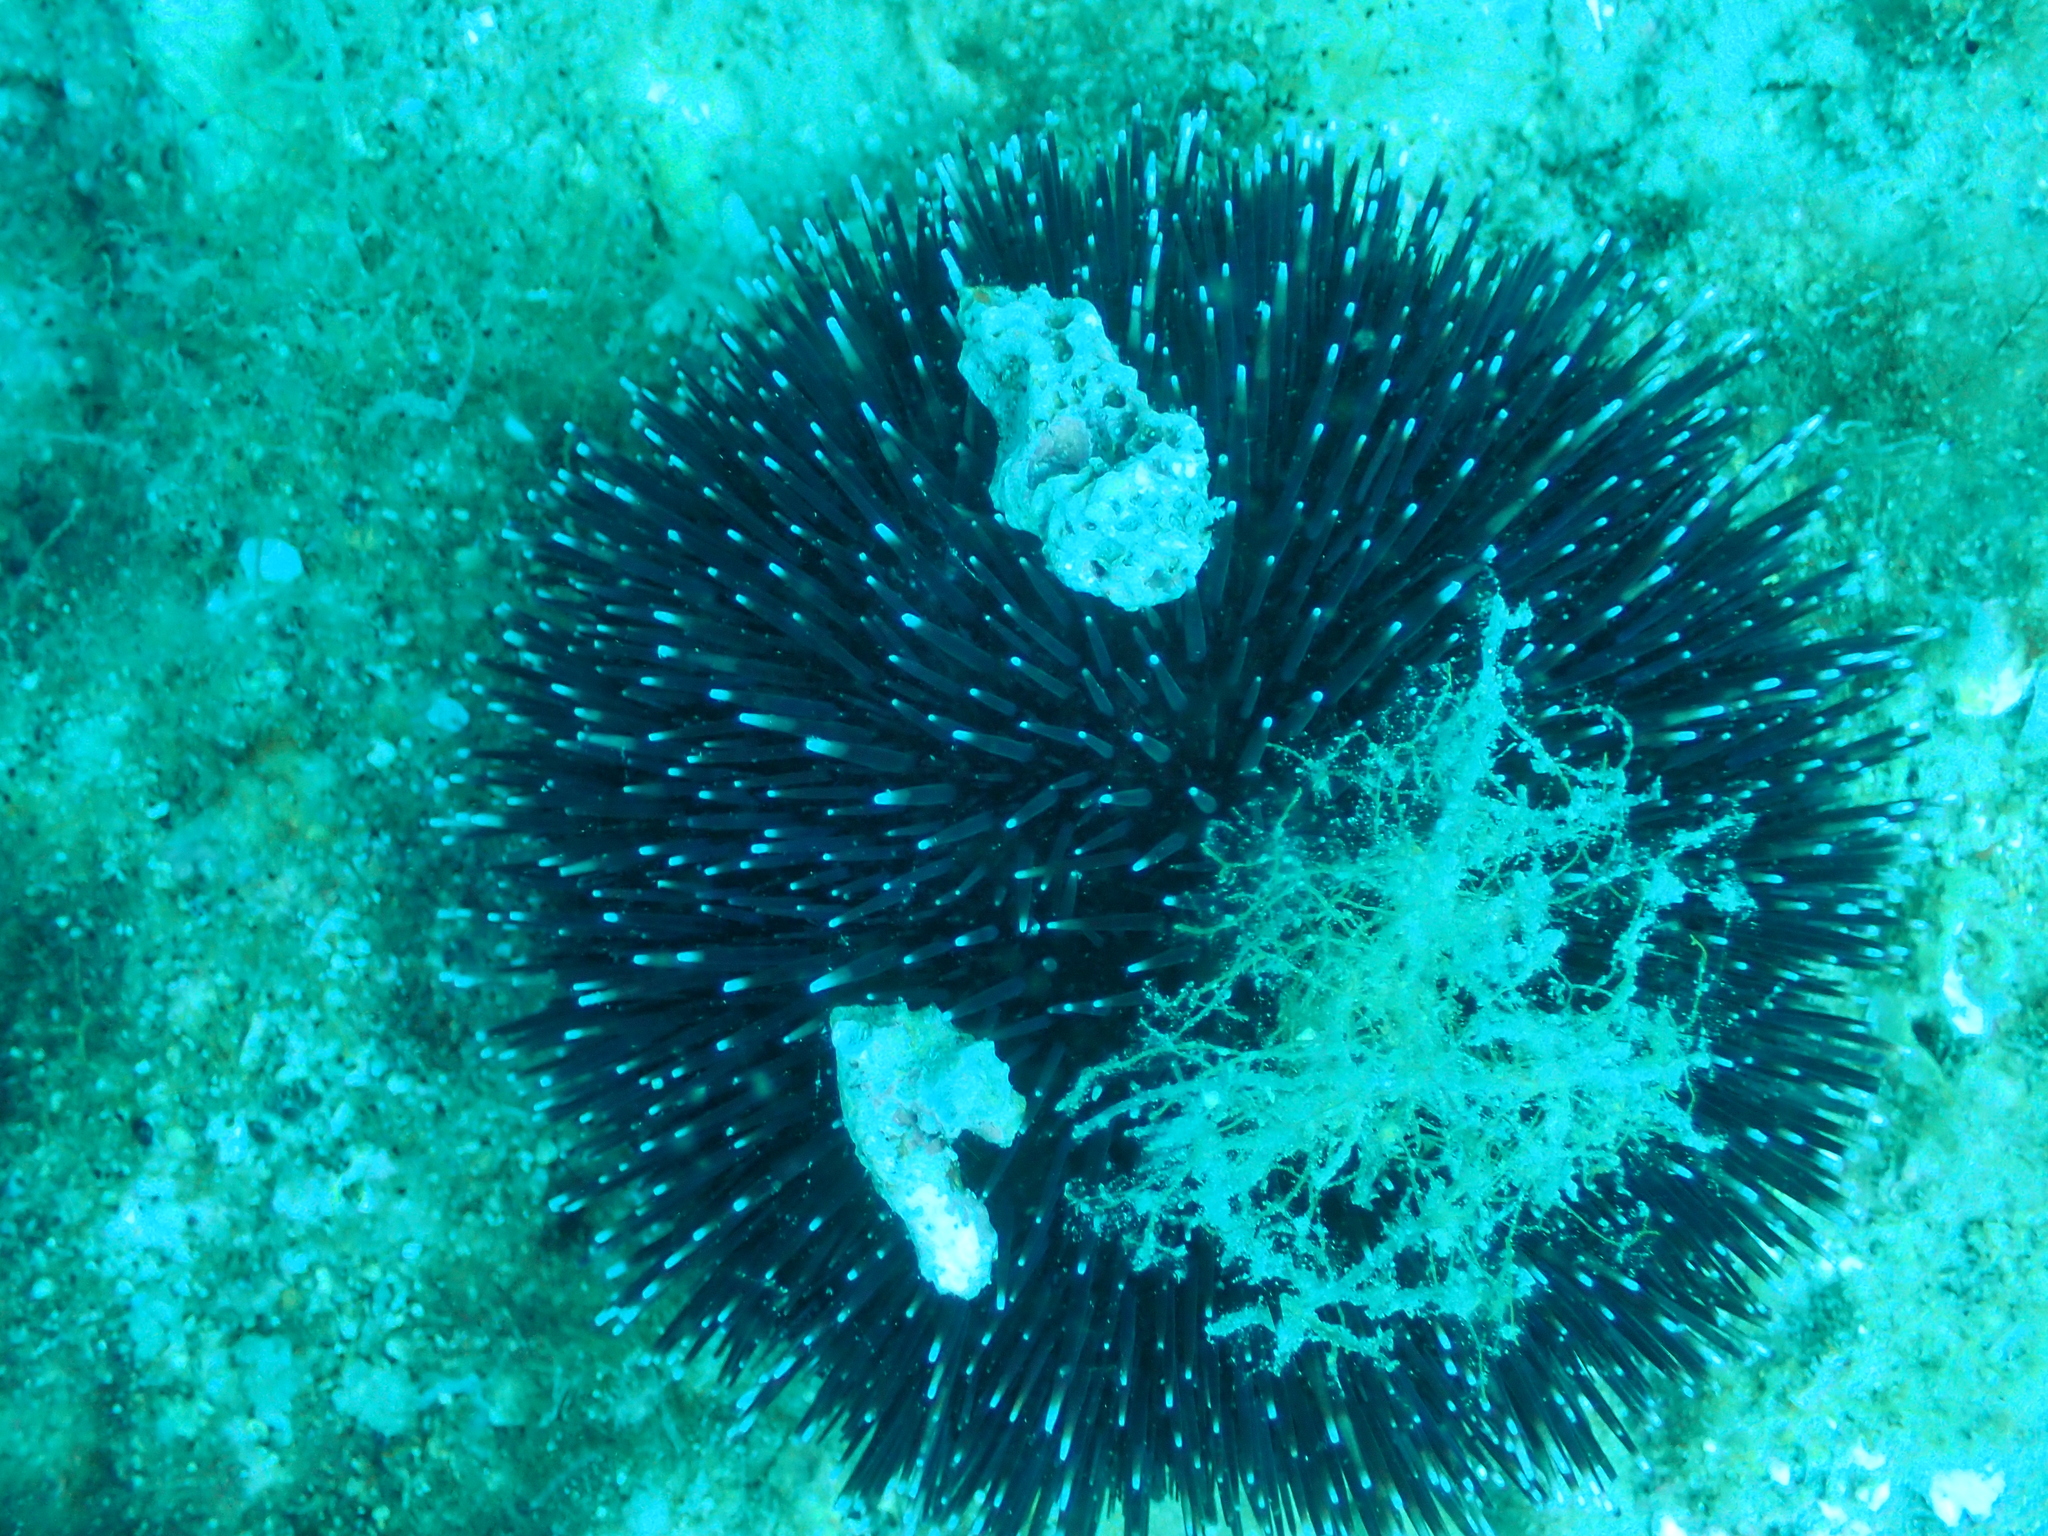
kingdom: Animalia
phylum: Echinodermata
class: Echinoidea
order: Camarodonta
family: Toxopneustidae
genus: Sphaerechinus
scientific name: Sphaerechinus granularis
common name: Violet sea urchin
